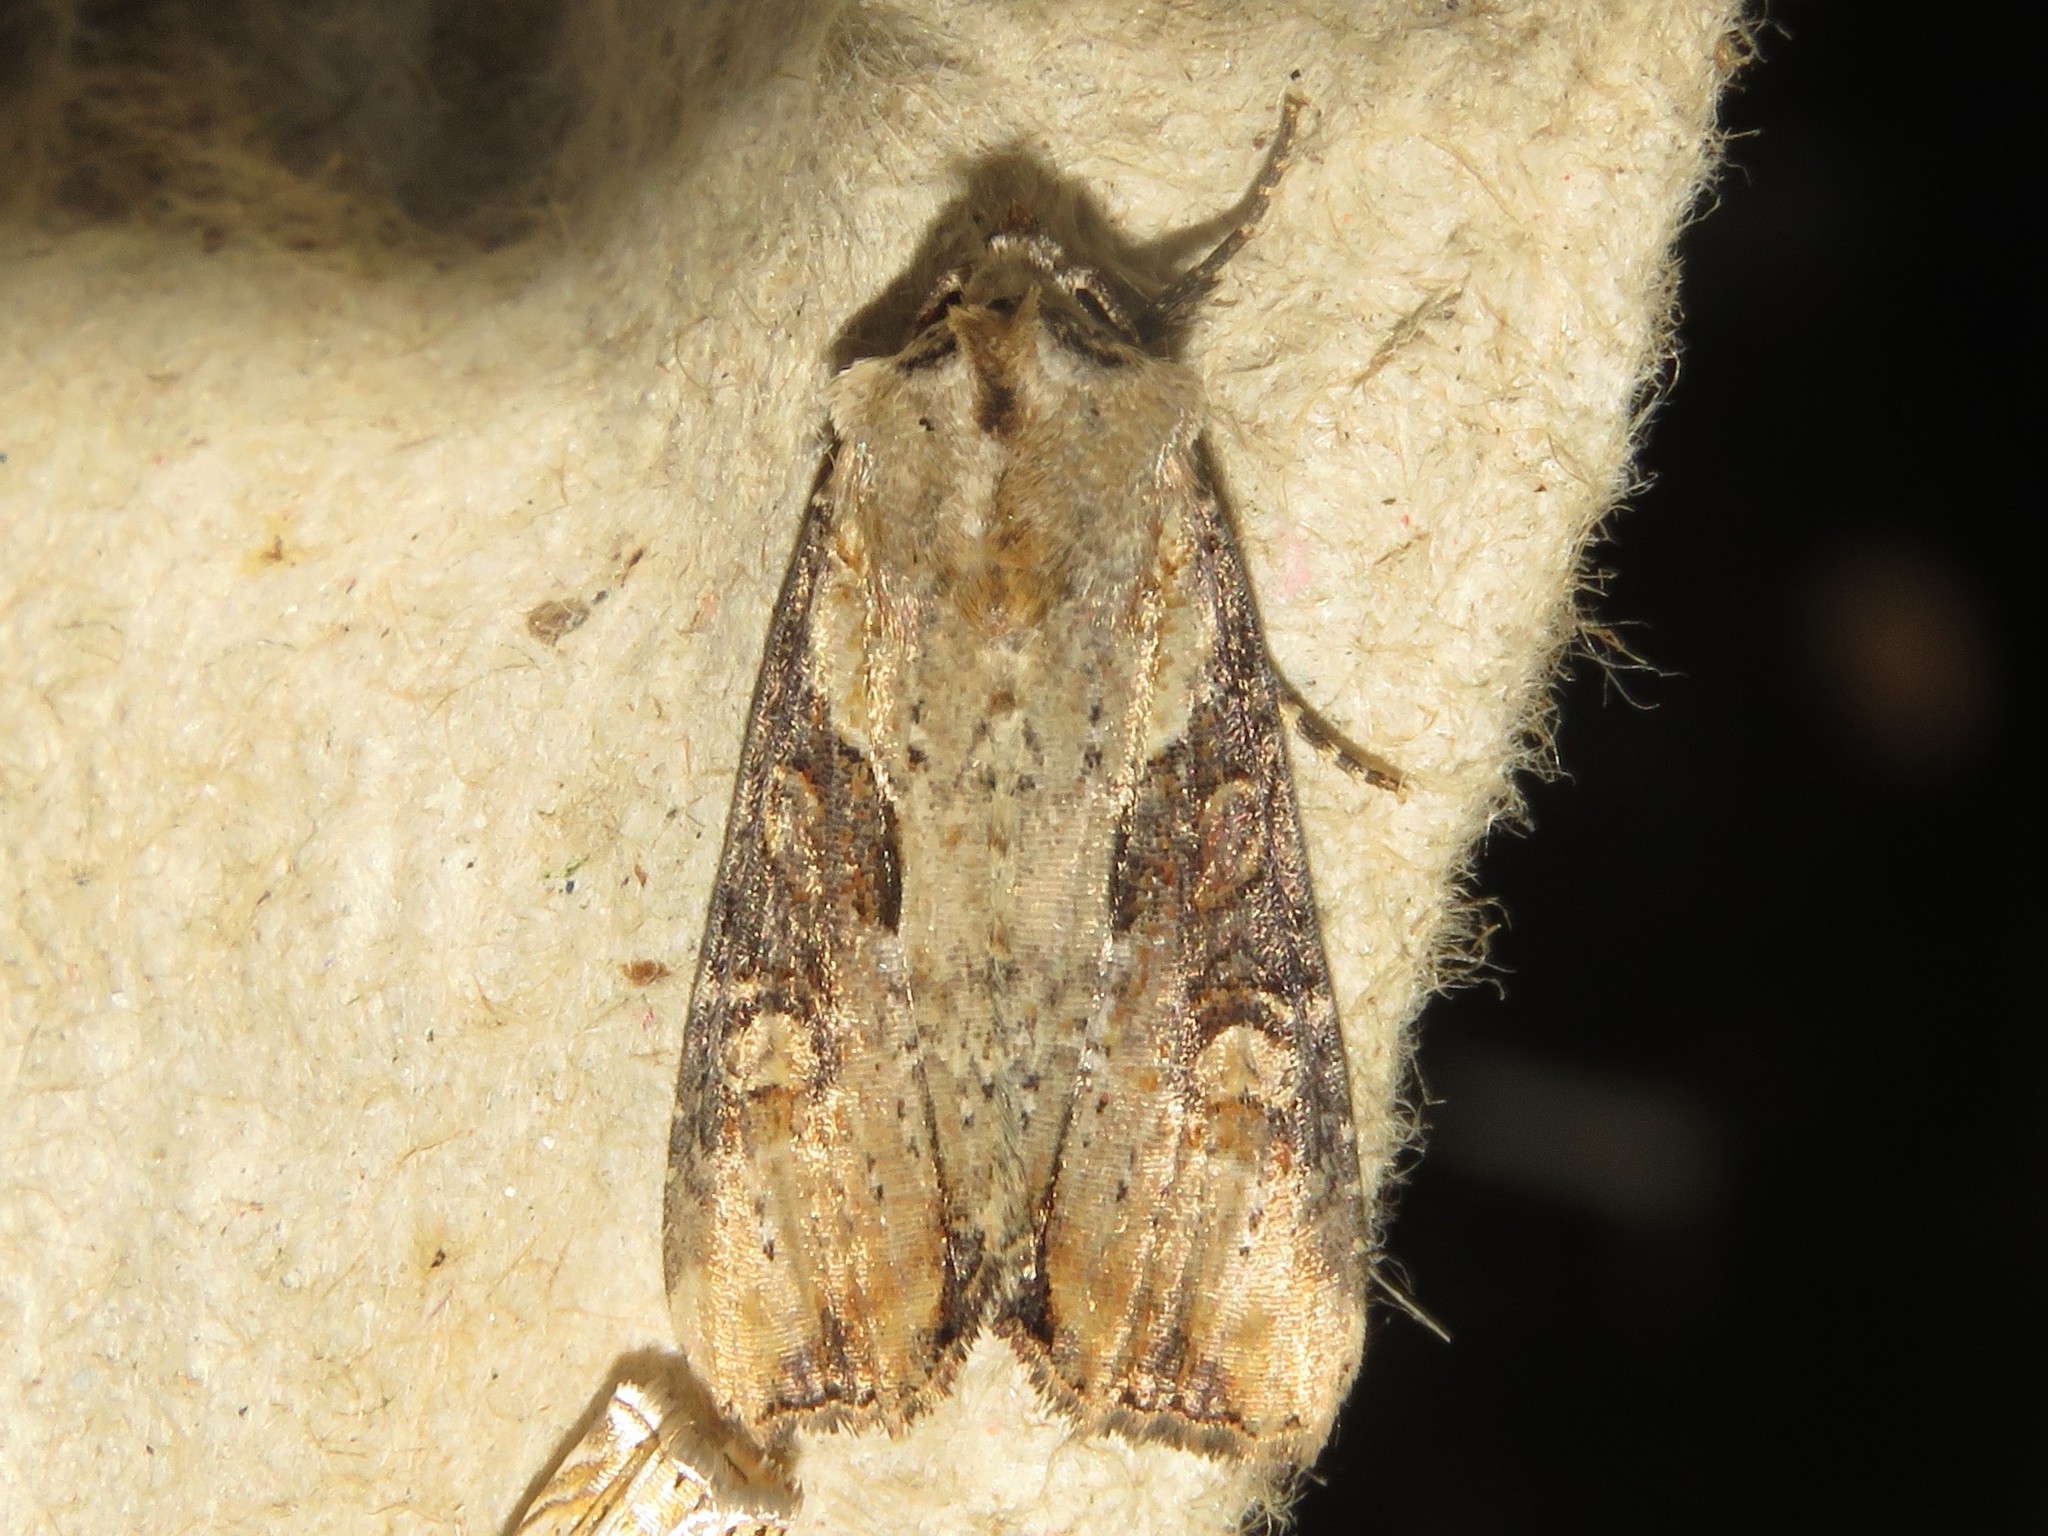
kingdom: Animalia
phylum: Arthropoda
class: Insecta
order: Lepidoptera
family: Noctuidae
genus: Lateroligia
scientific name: Lateroligia ophiogramma
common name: Double lobed
